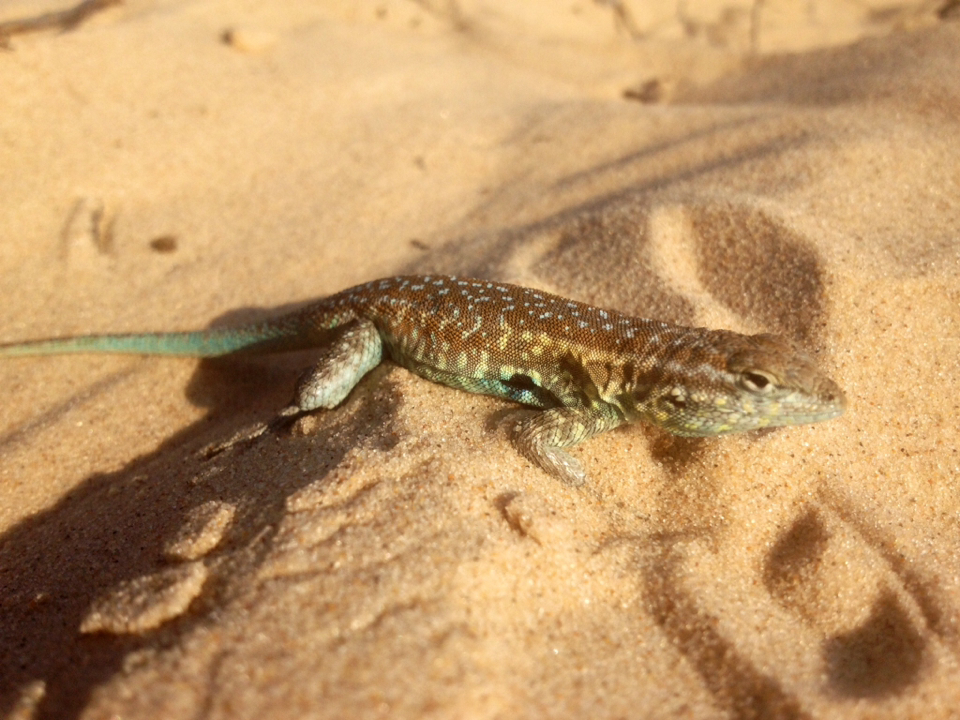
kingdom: Animalia
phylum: Chordata
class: Squamata
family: Phrynosomatidae
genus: Uta
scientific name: Uta stansburiana
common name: Side-blotched lizard
